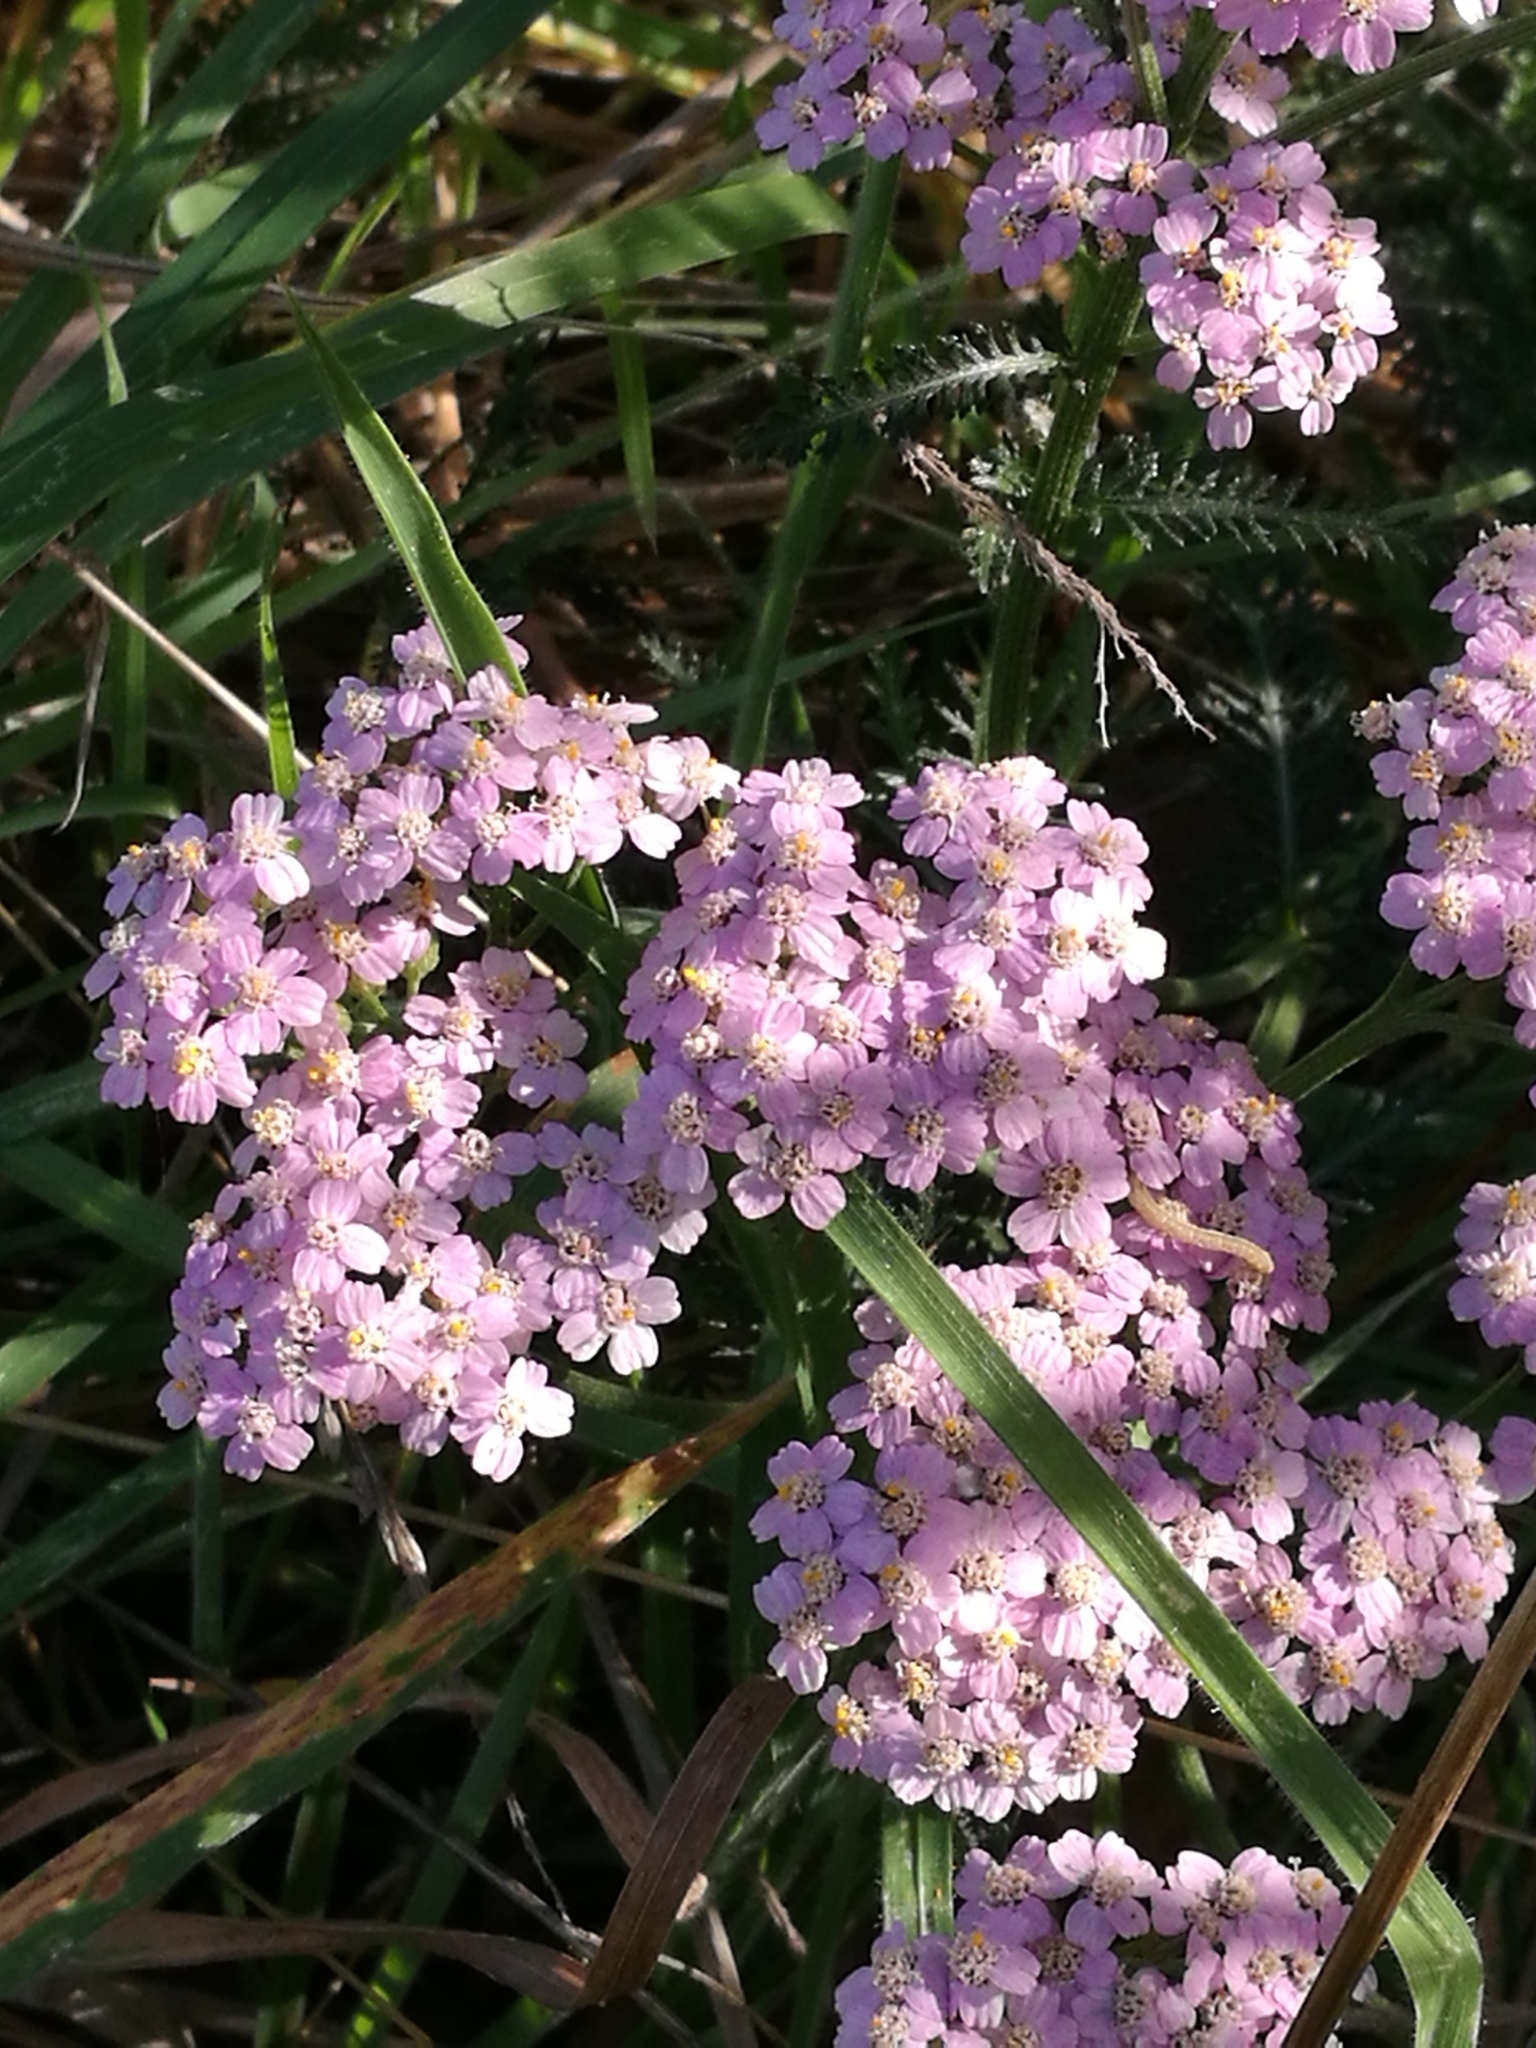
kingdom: Plantae
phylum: Tracheophyta
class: Magnoliopsida
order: Asterales
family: Asteraceae
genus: Achillea
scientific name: Achillea millefolium
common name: Yarrow
